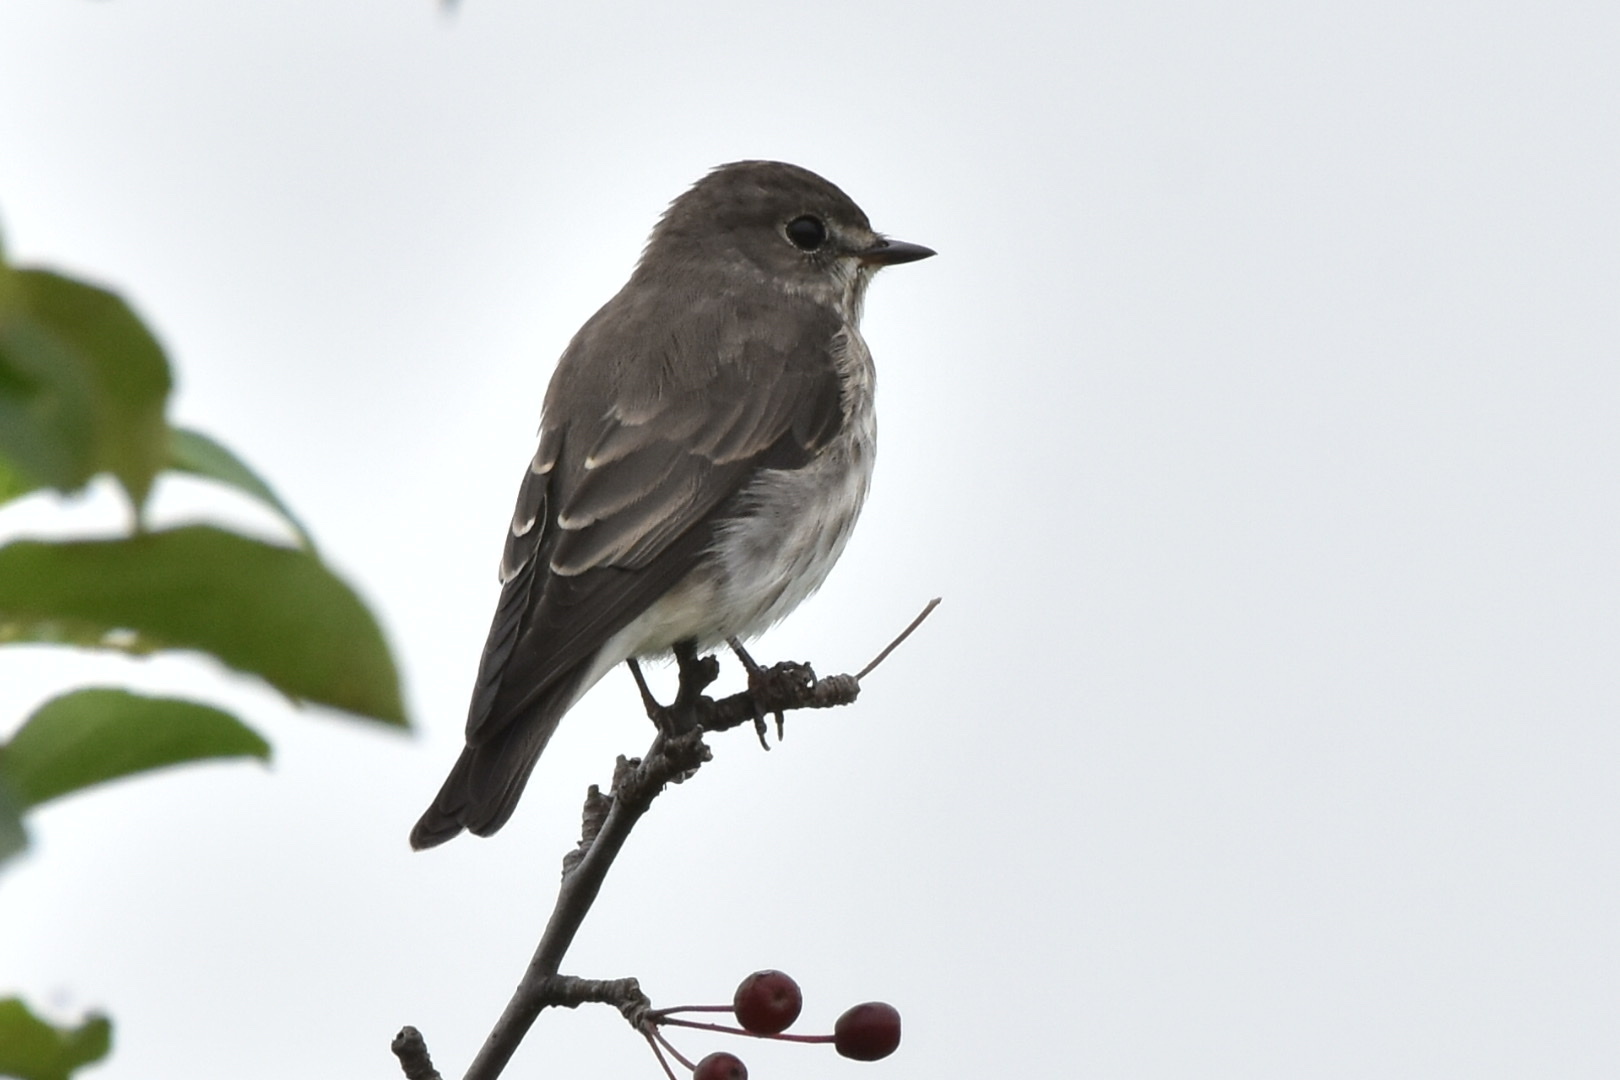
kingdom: Animalia
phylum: Chordata
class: Aves
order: Passeriformes
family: Muscicapidae
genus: Muscicapa
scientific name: Muscicapa griseisticta
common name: Gray-streaked flycatcher
